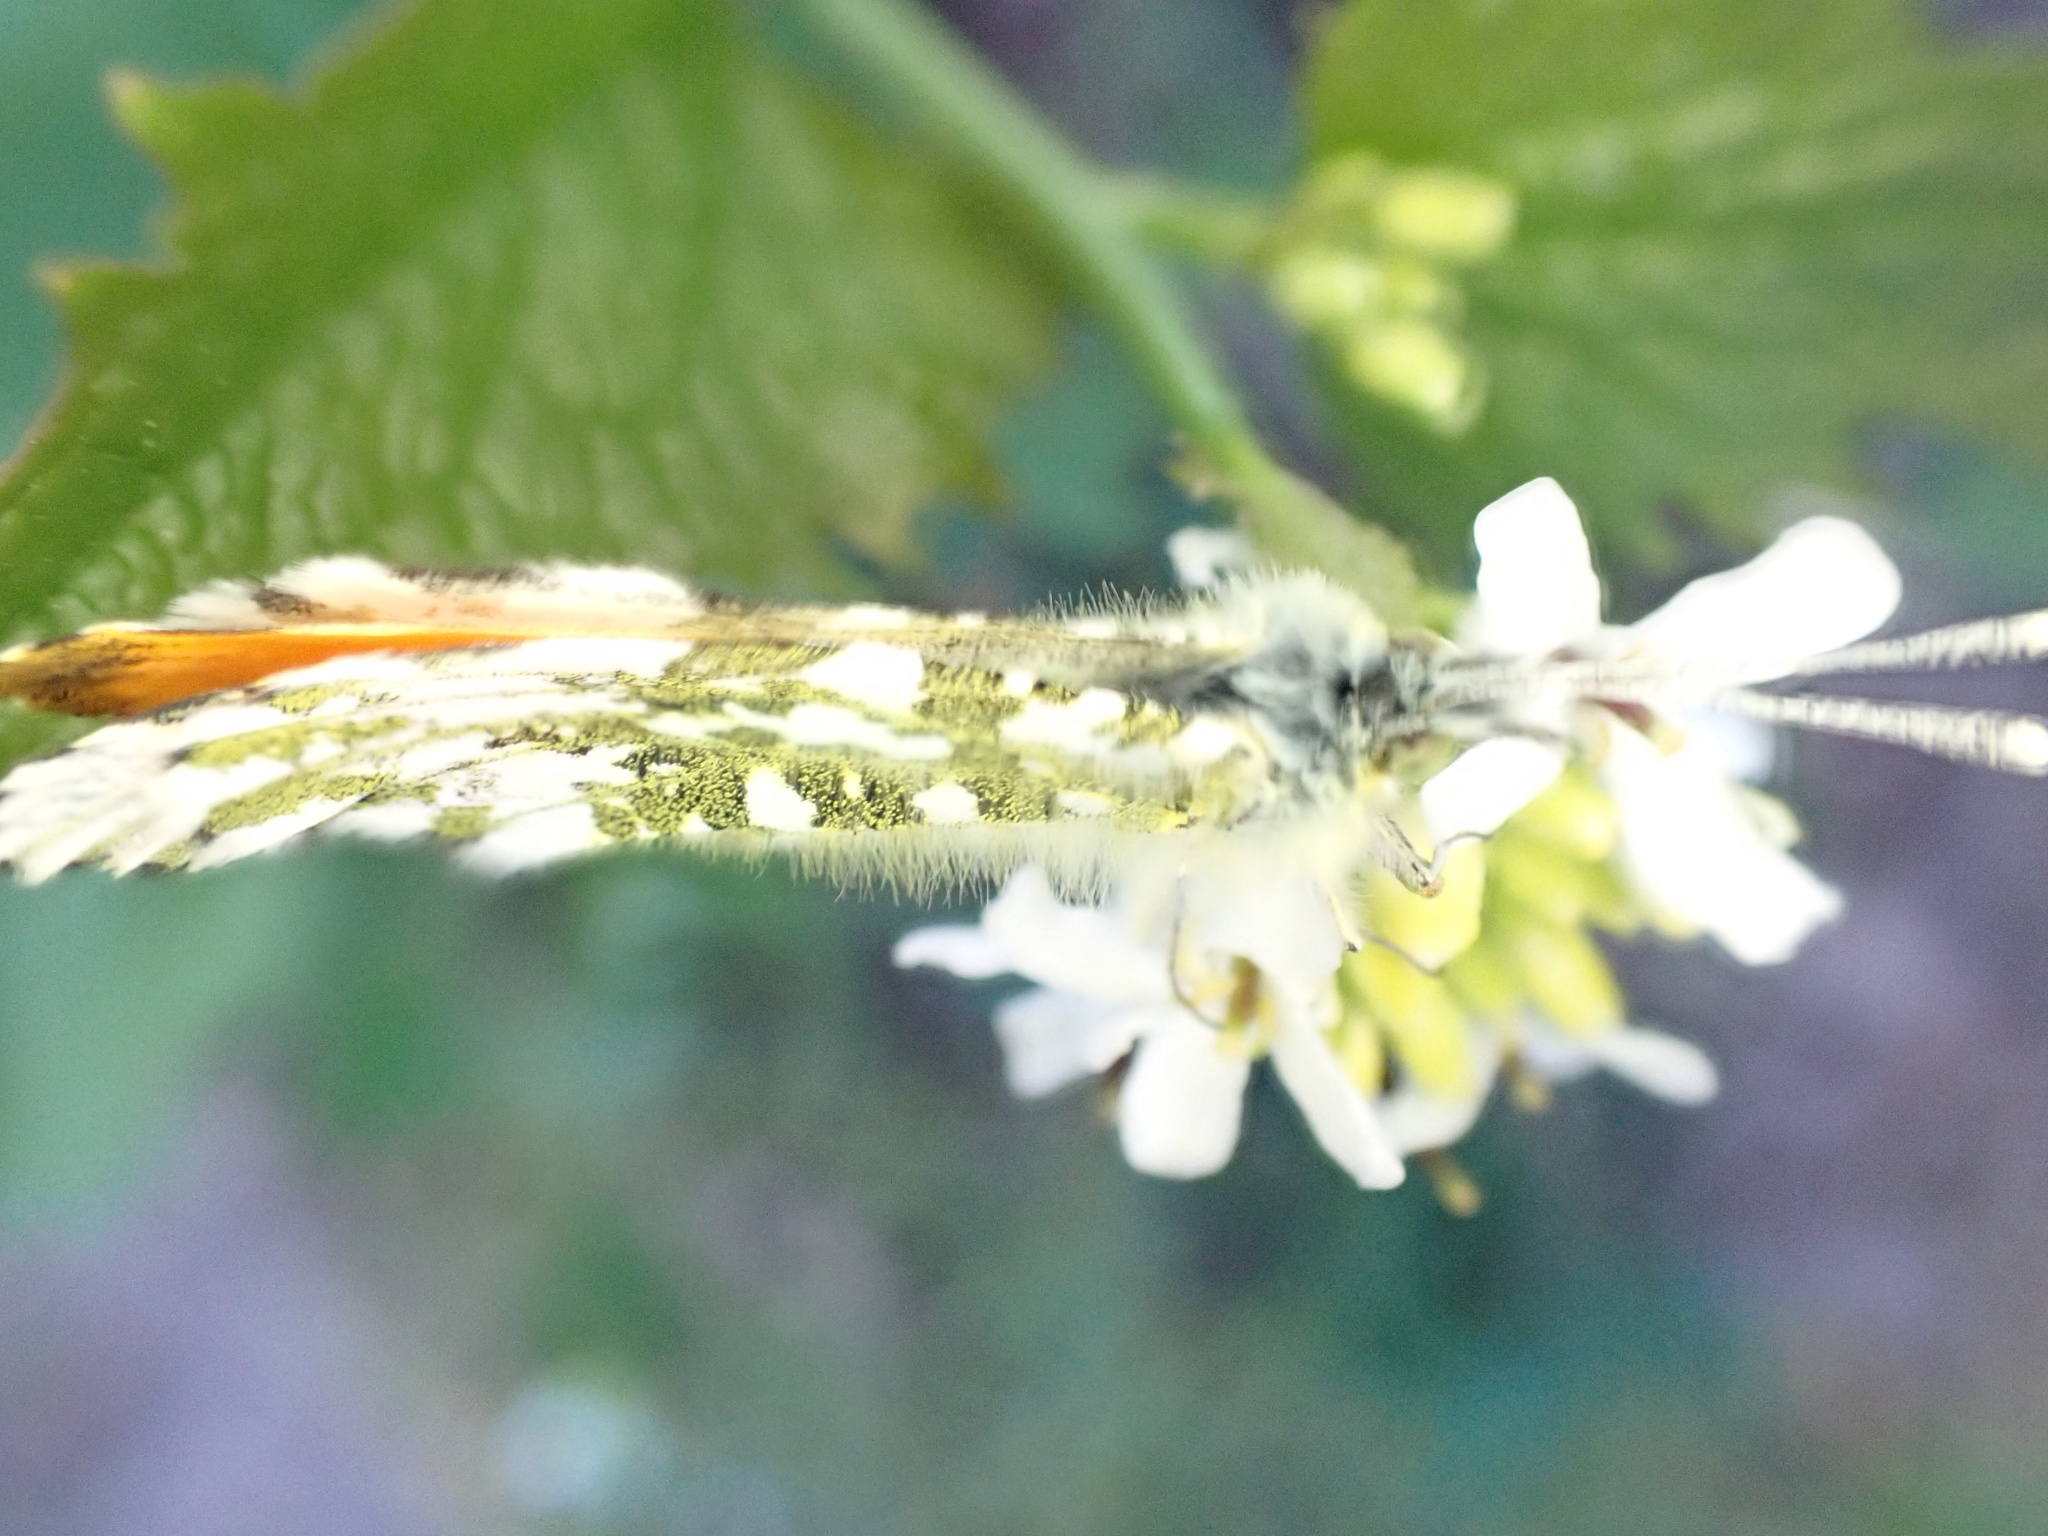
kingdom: Animalia
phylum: Arthropoda
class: Insecta
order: Lepidoptera
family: Pieridae
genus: Anthocharis
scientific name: Anthocharis cardamines
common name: Orange-tip
